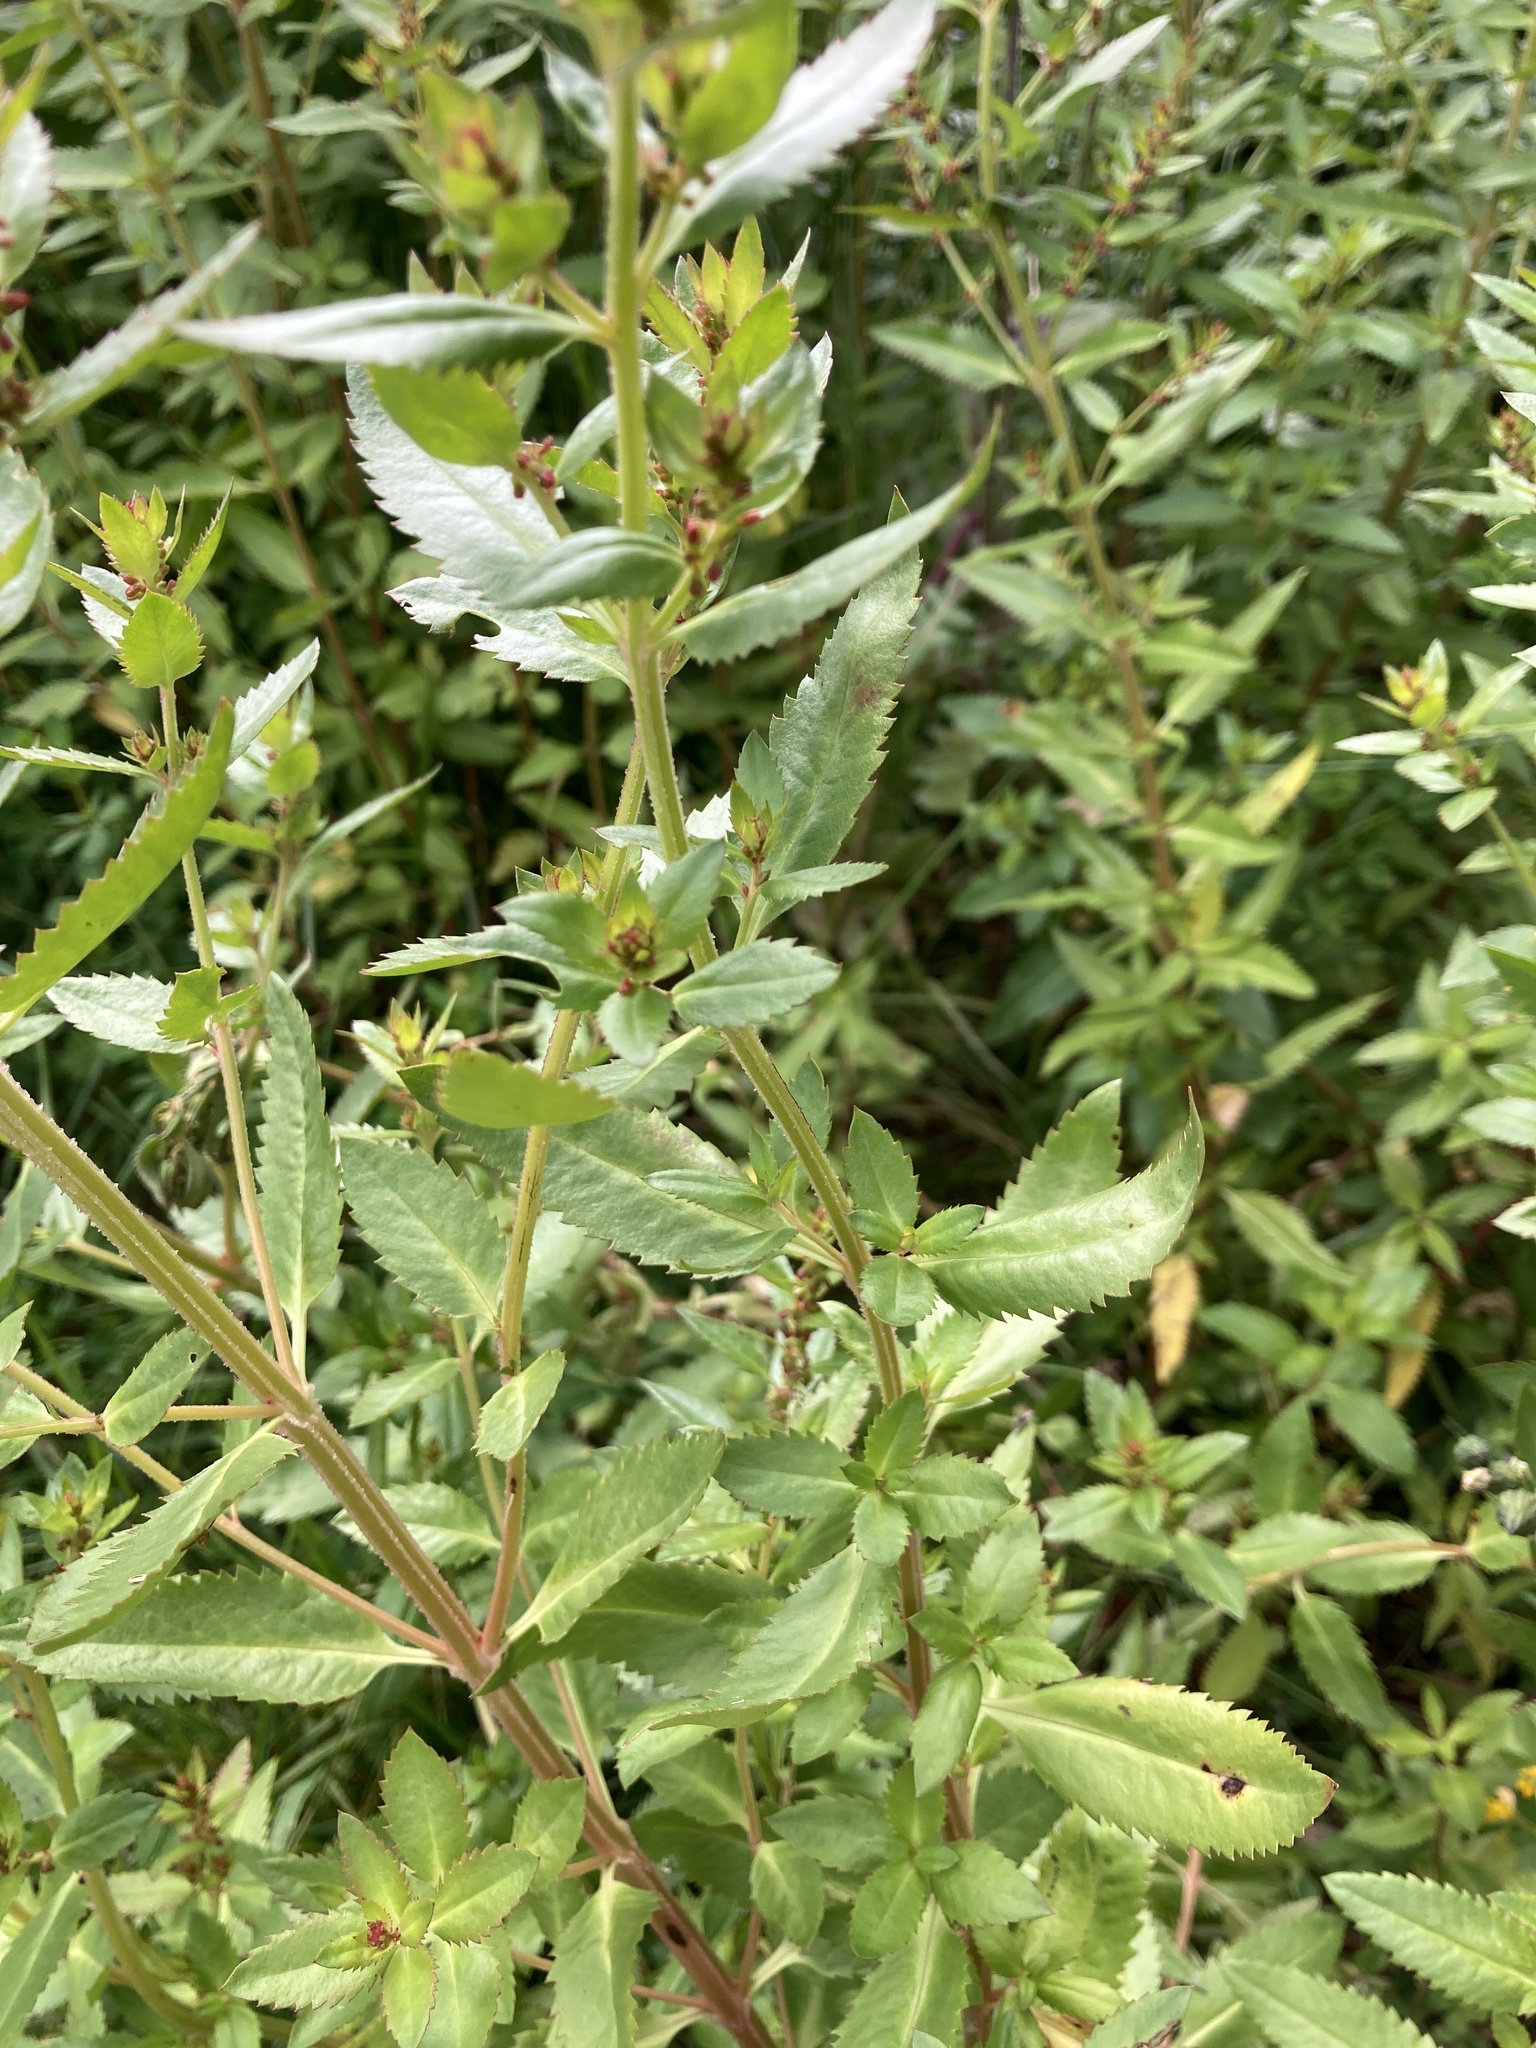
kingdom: Plantae
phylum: Tracheophyta
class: Magnoliopsida
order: Saxifragales
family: Haloragaceae
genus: Haloragis
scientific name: Haloragis erecta
